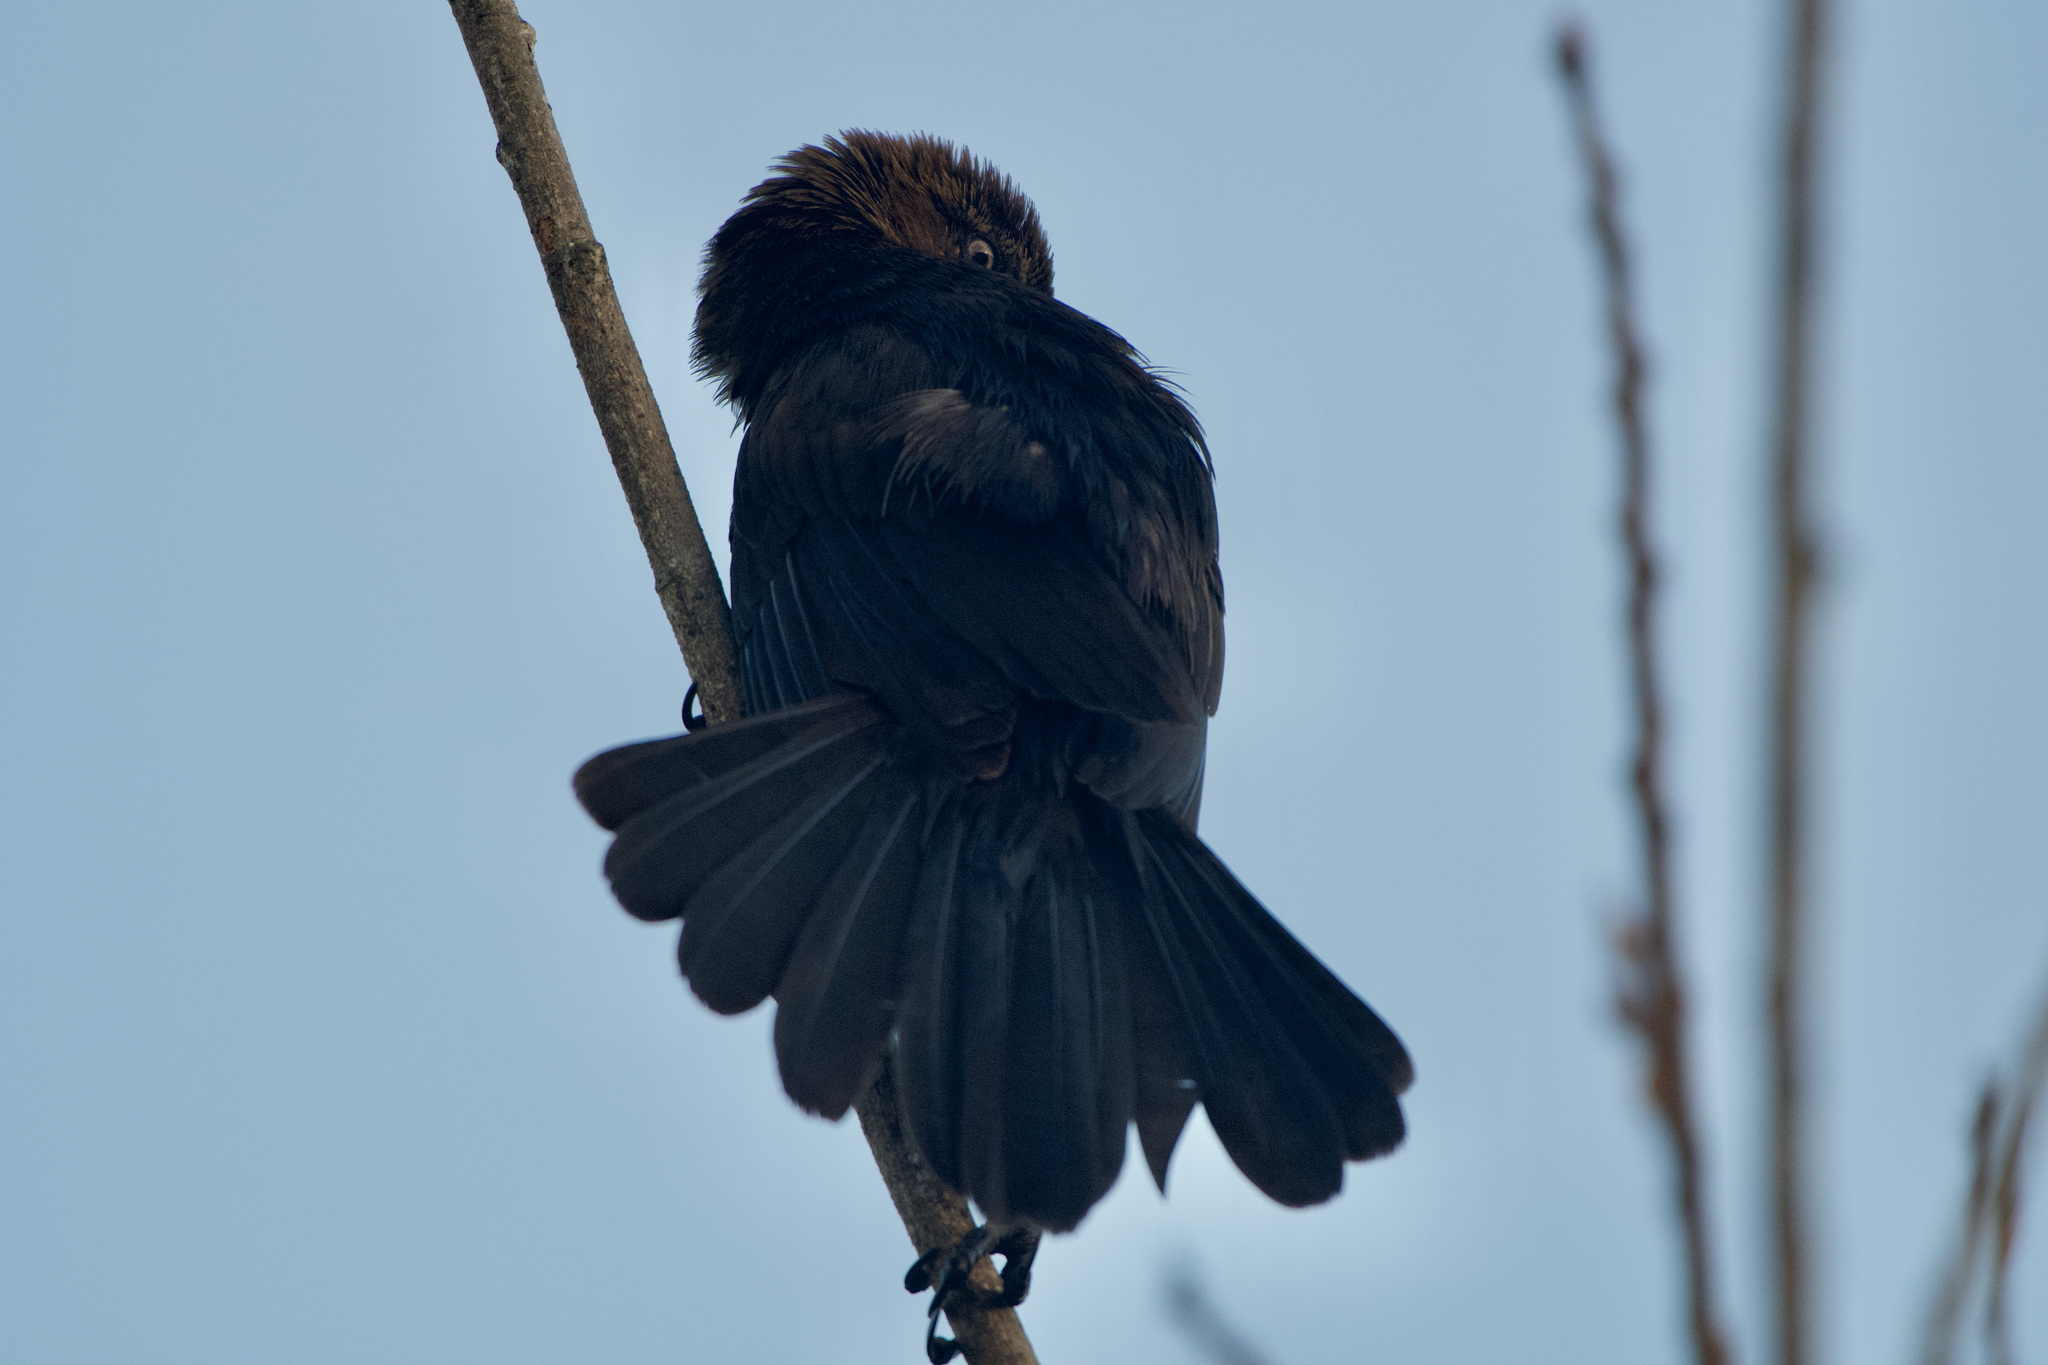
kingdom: Animalia
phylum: Chordata
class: Aves
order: Passeriformes
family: Icteridae
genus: Quiscalus
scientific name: Quiscalus mexicanus
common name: Great-tailed grackle
